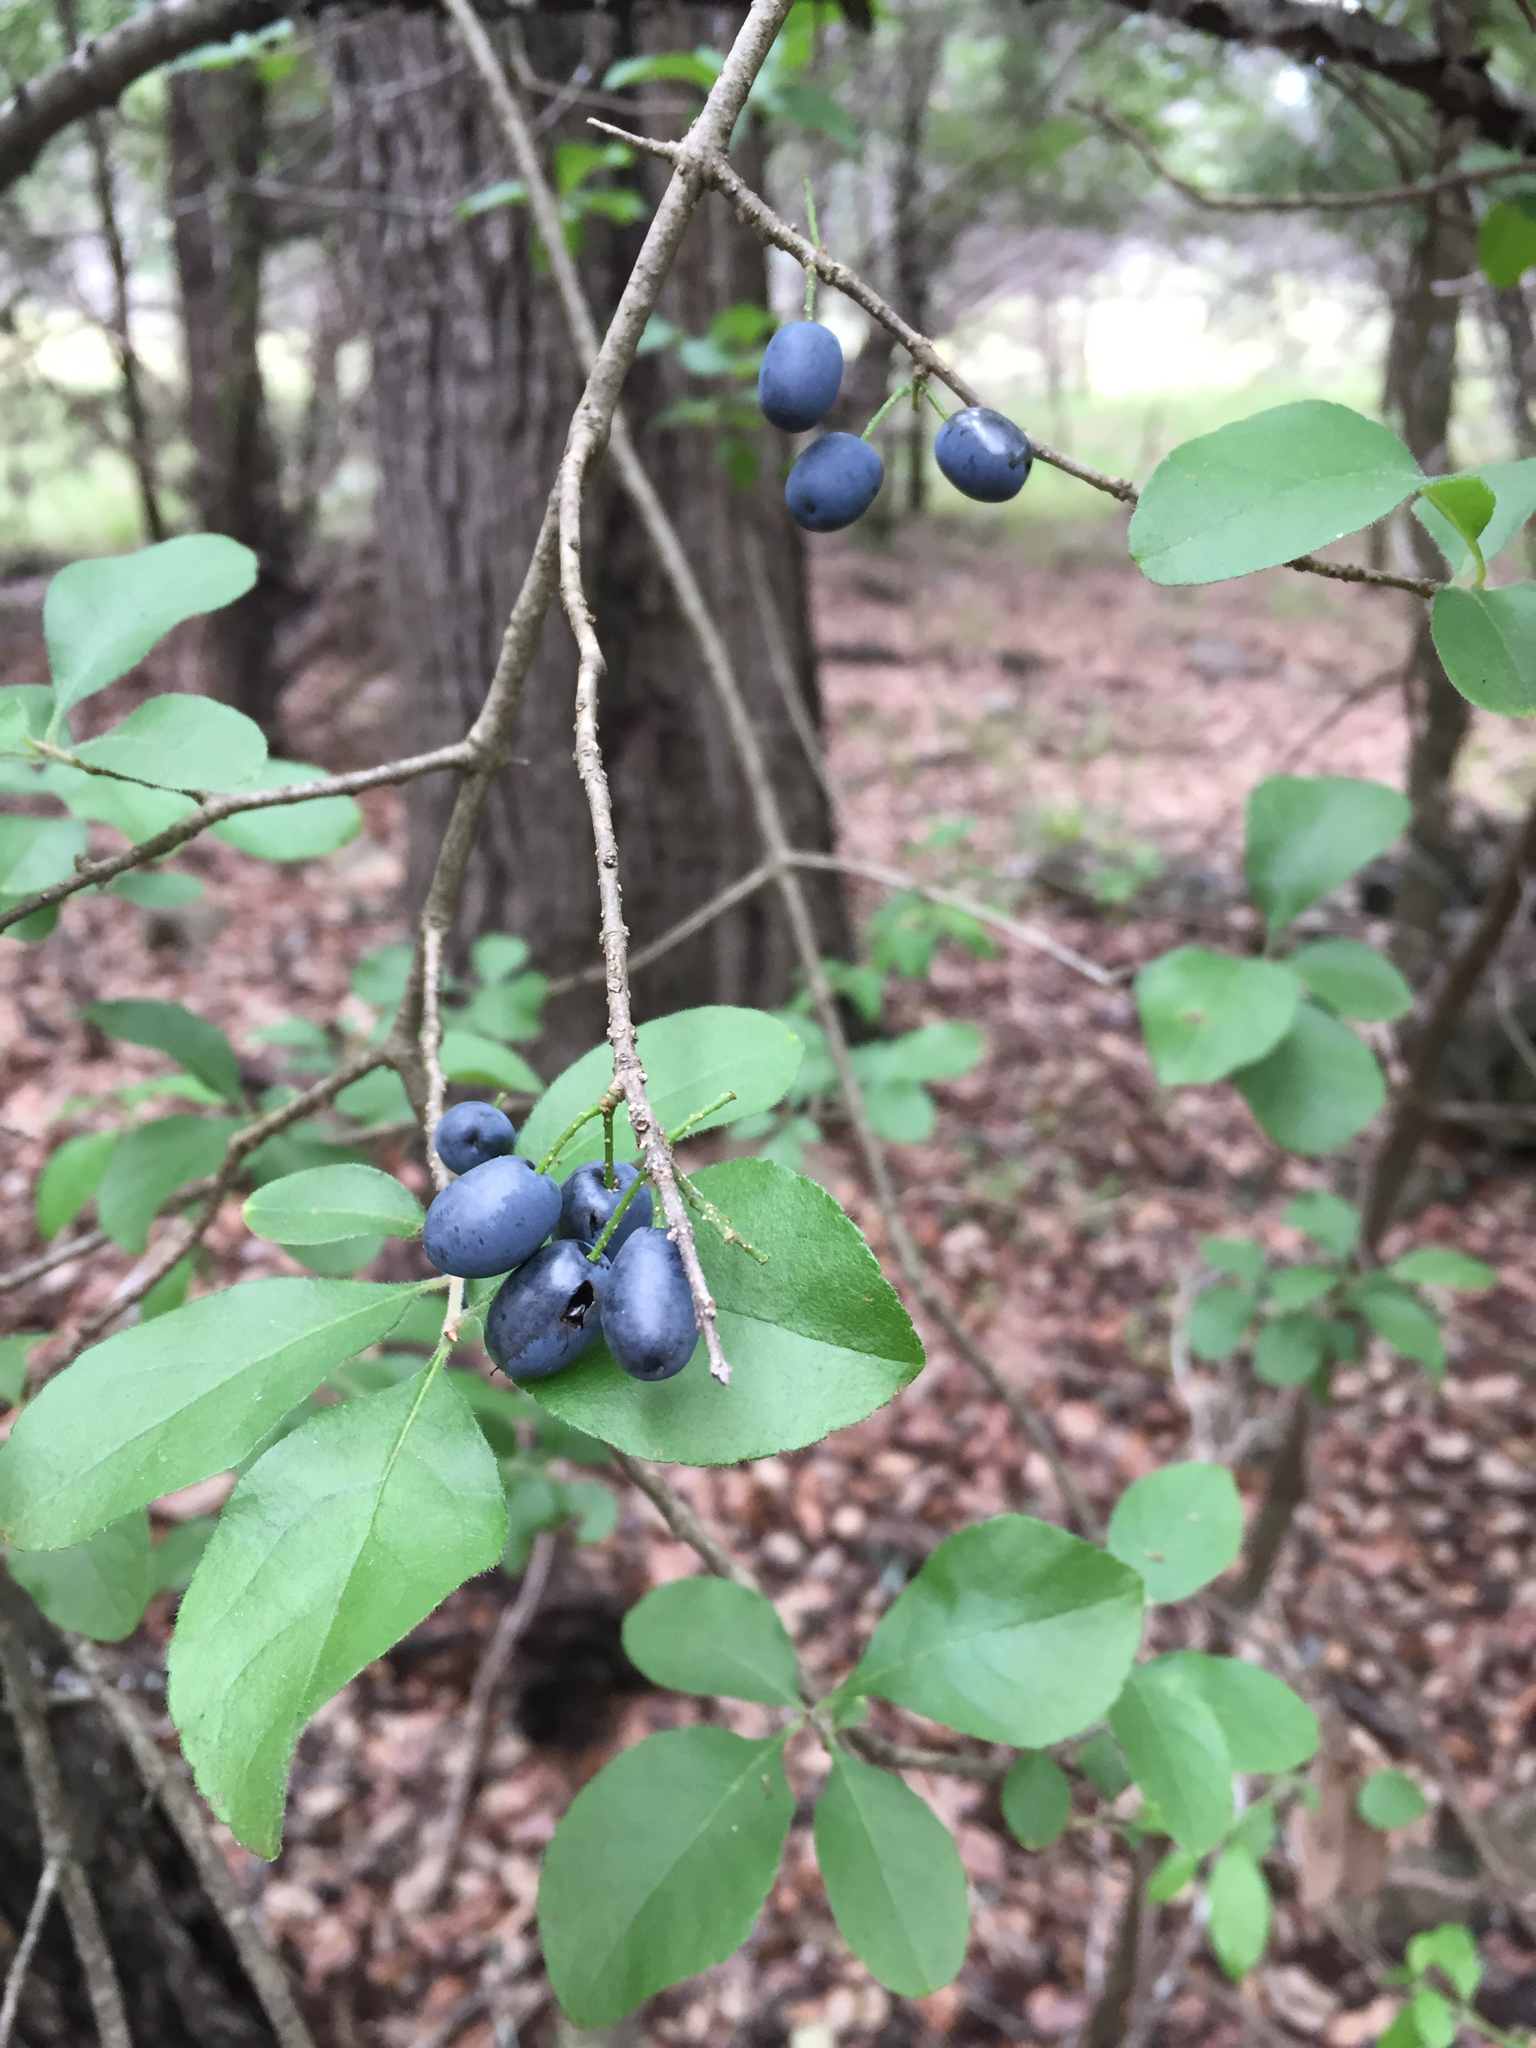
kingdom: Plantae
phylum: Tracheophyta
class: Magnoliopsida
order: Dipsacales
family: Viburnaceae
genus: Viburnum
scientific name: Viburnum rufidulum
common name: Blue haw
